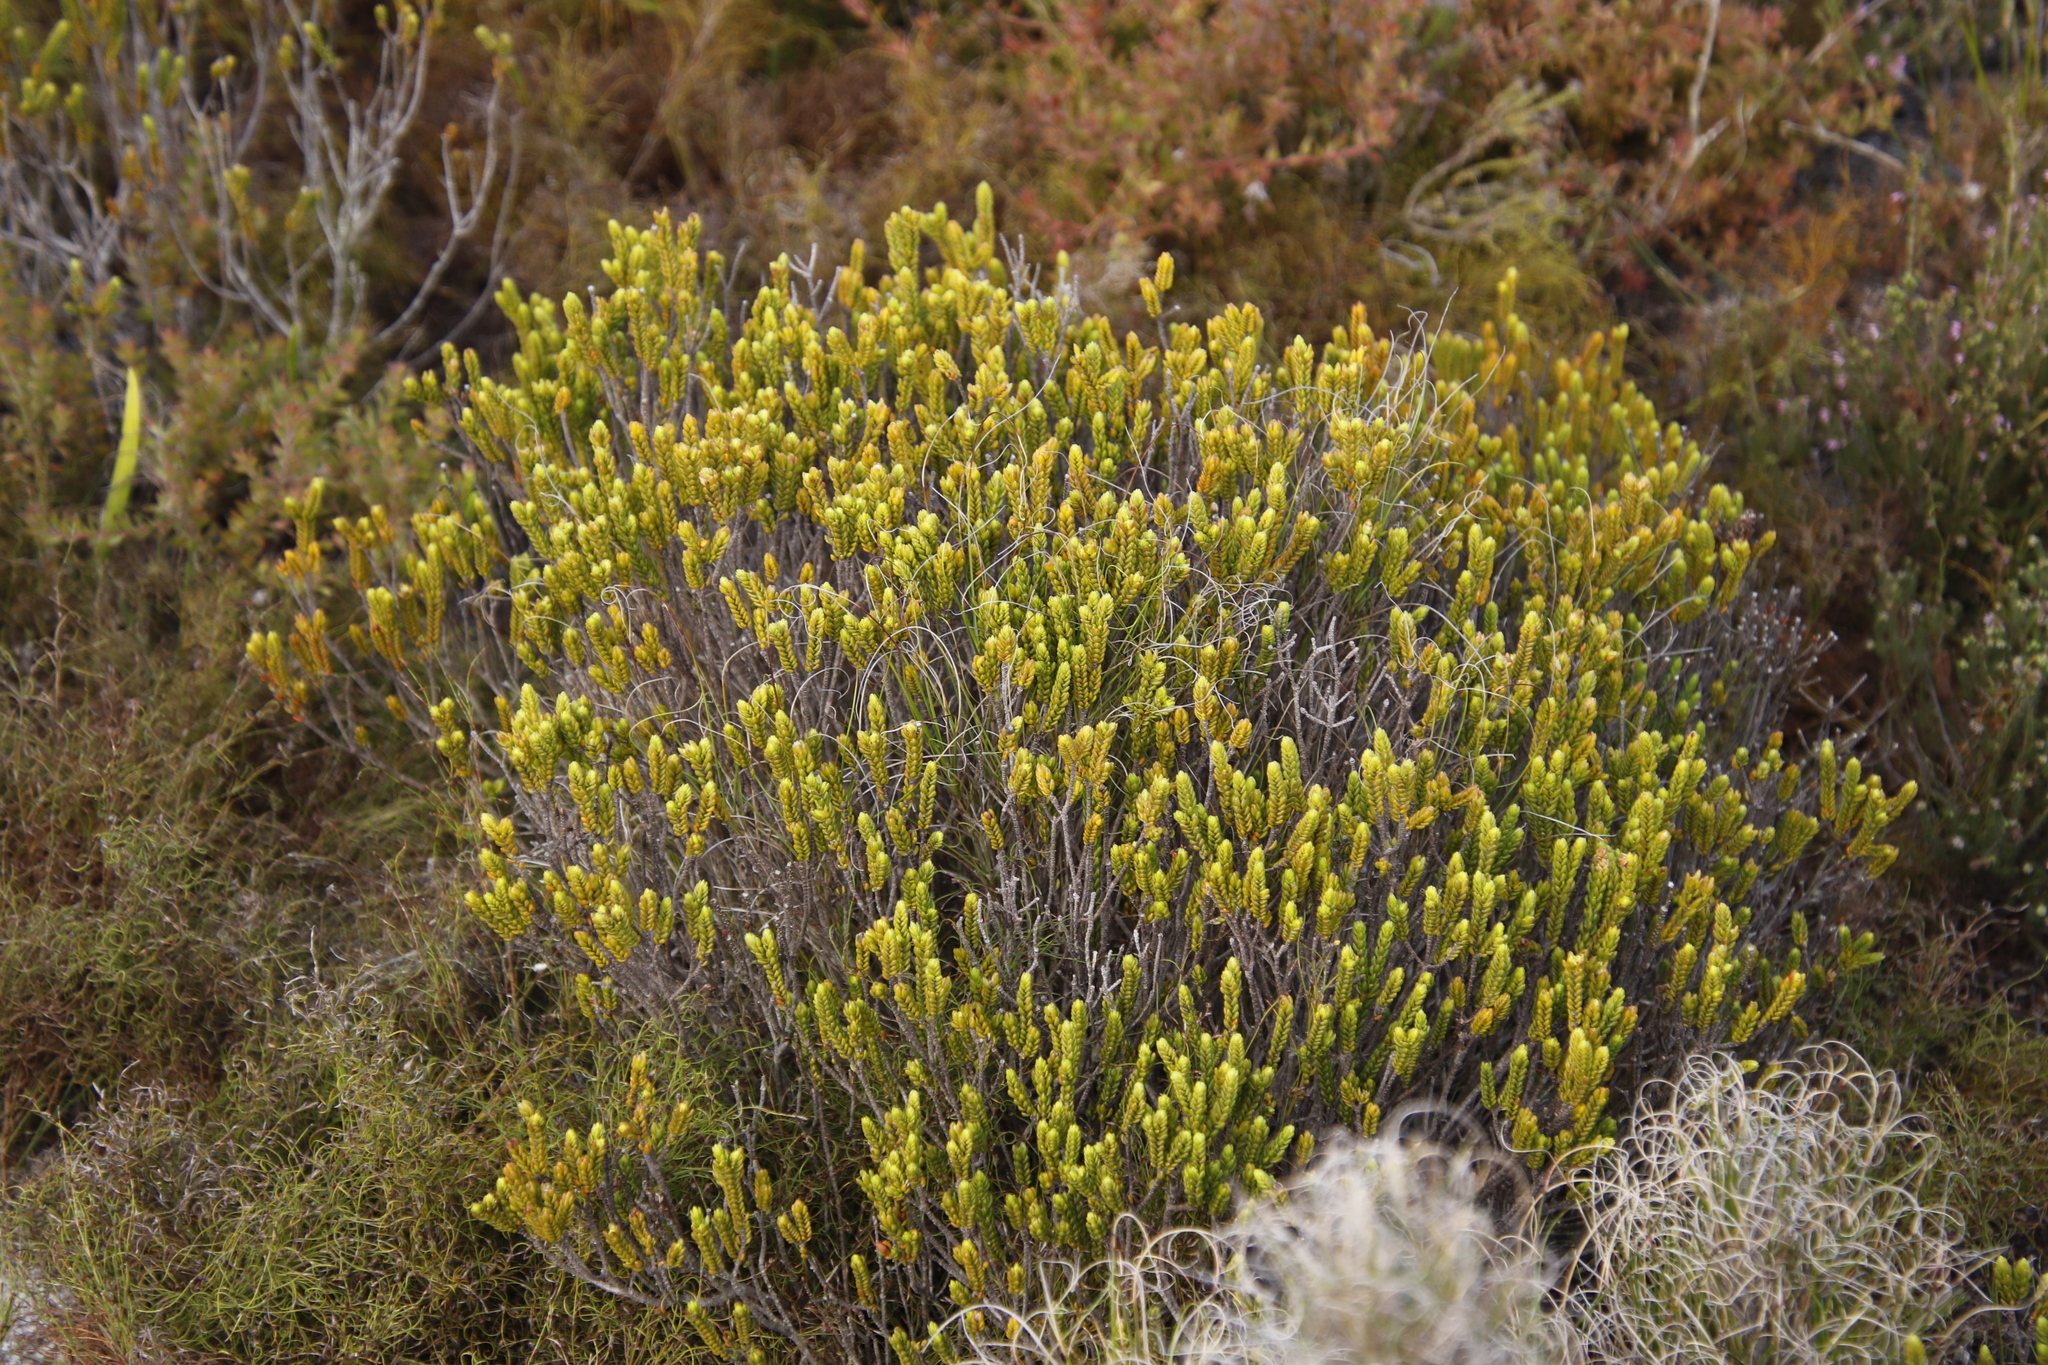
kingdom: Plantae
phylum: Tracheophyta
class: Magnoliopsida
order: Malvales
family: Thymelaeaceae
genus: Lachnaea
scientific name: Lachnaea grandiflora
